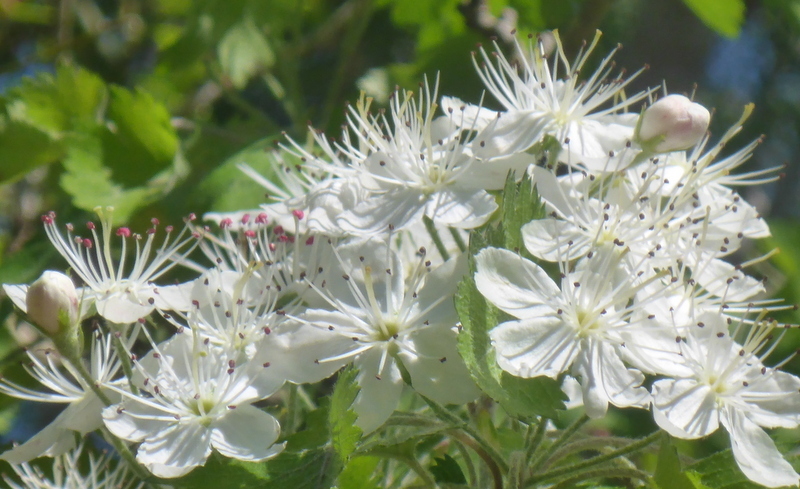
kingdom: Plantae
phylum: Tracheophyta
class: Magnoliopsida
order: Rosales
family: Rosaceae
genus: Crataegus
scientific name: Crataegus marshallii
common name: Parsley-hawthorn
